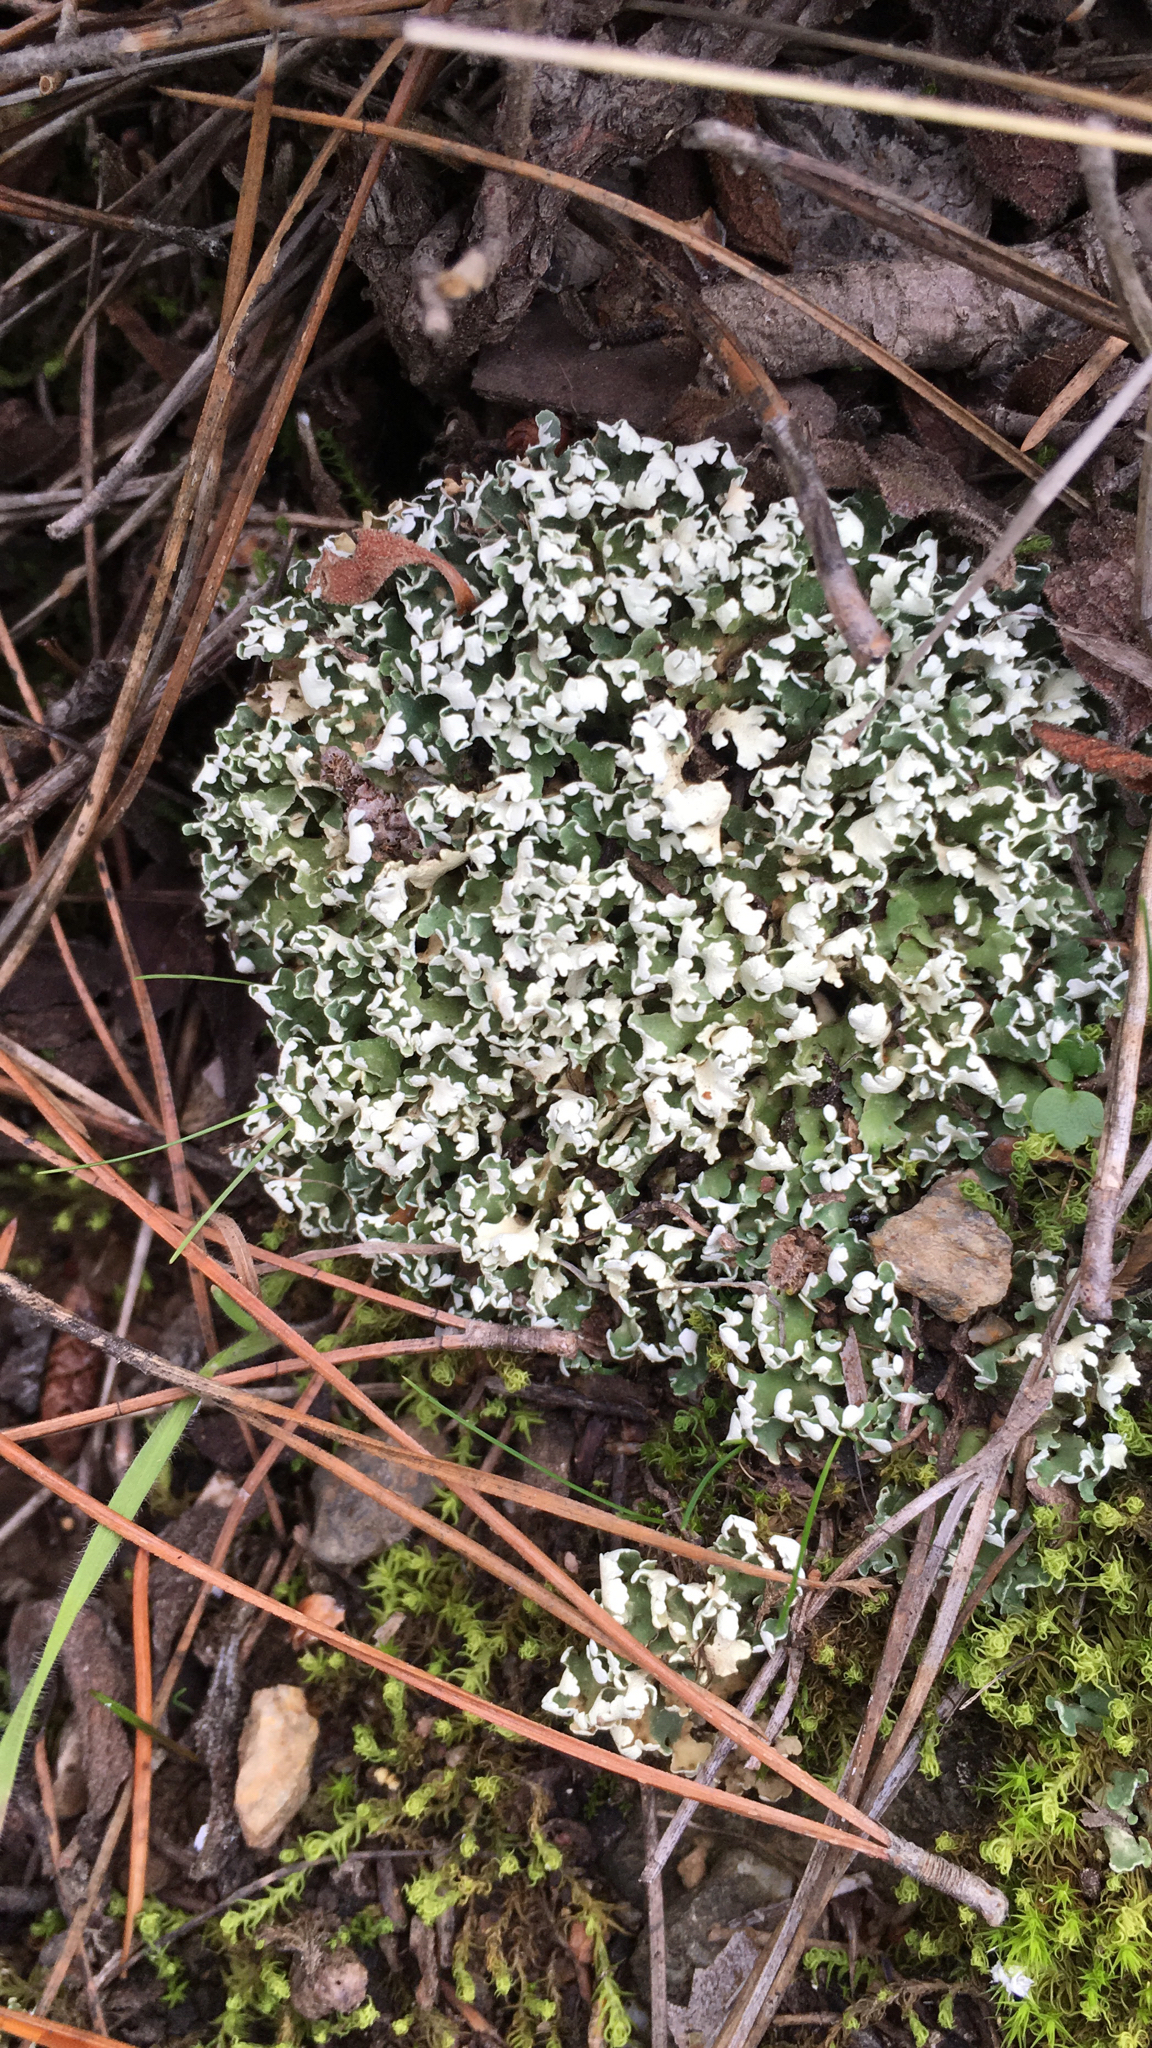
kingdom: Fungi
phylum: Ascomycota
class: Lecanoromycetes
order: Lecanorales
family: Cladoniaceae
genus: Cladonia
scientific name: Cladonia foliacea
